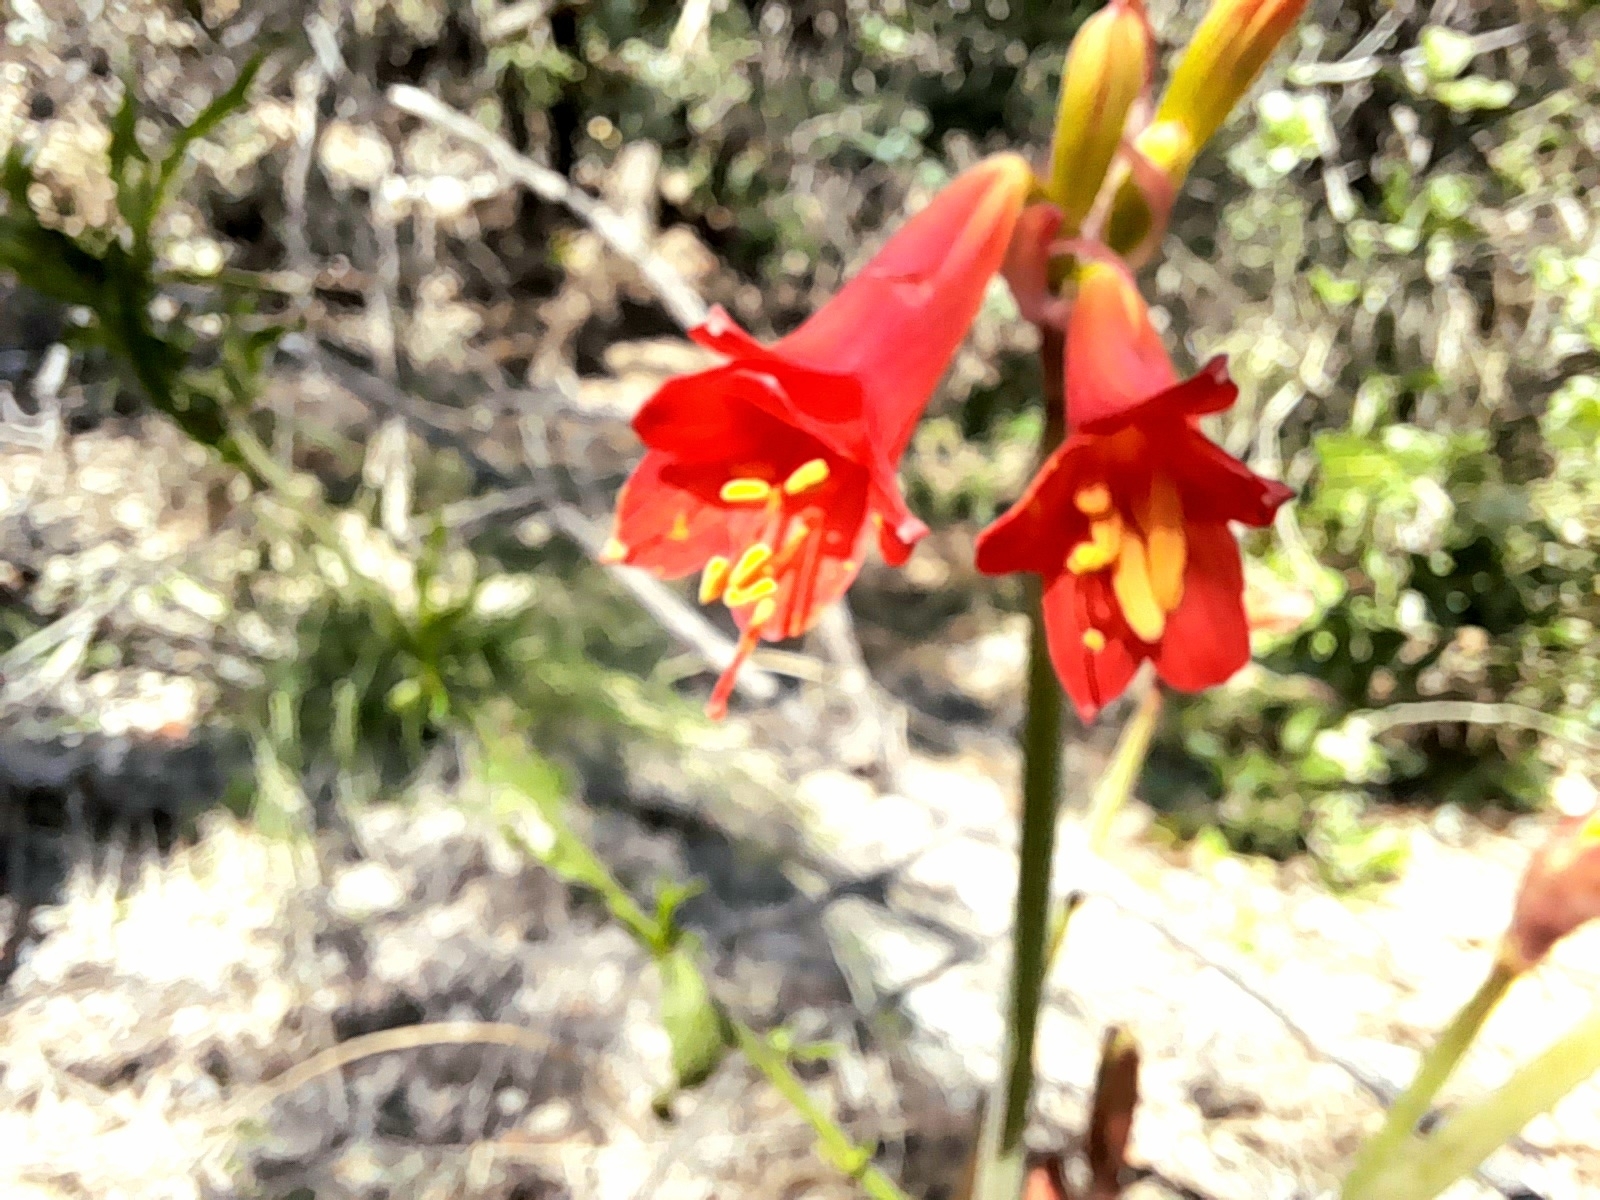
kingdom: Plantae
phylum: Tracheophyta
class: Liliopsida
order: Asparagales
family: Amaryllidaceae
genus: Phycella
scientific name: Phycella cyrtanthoides
